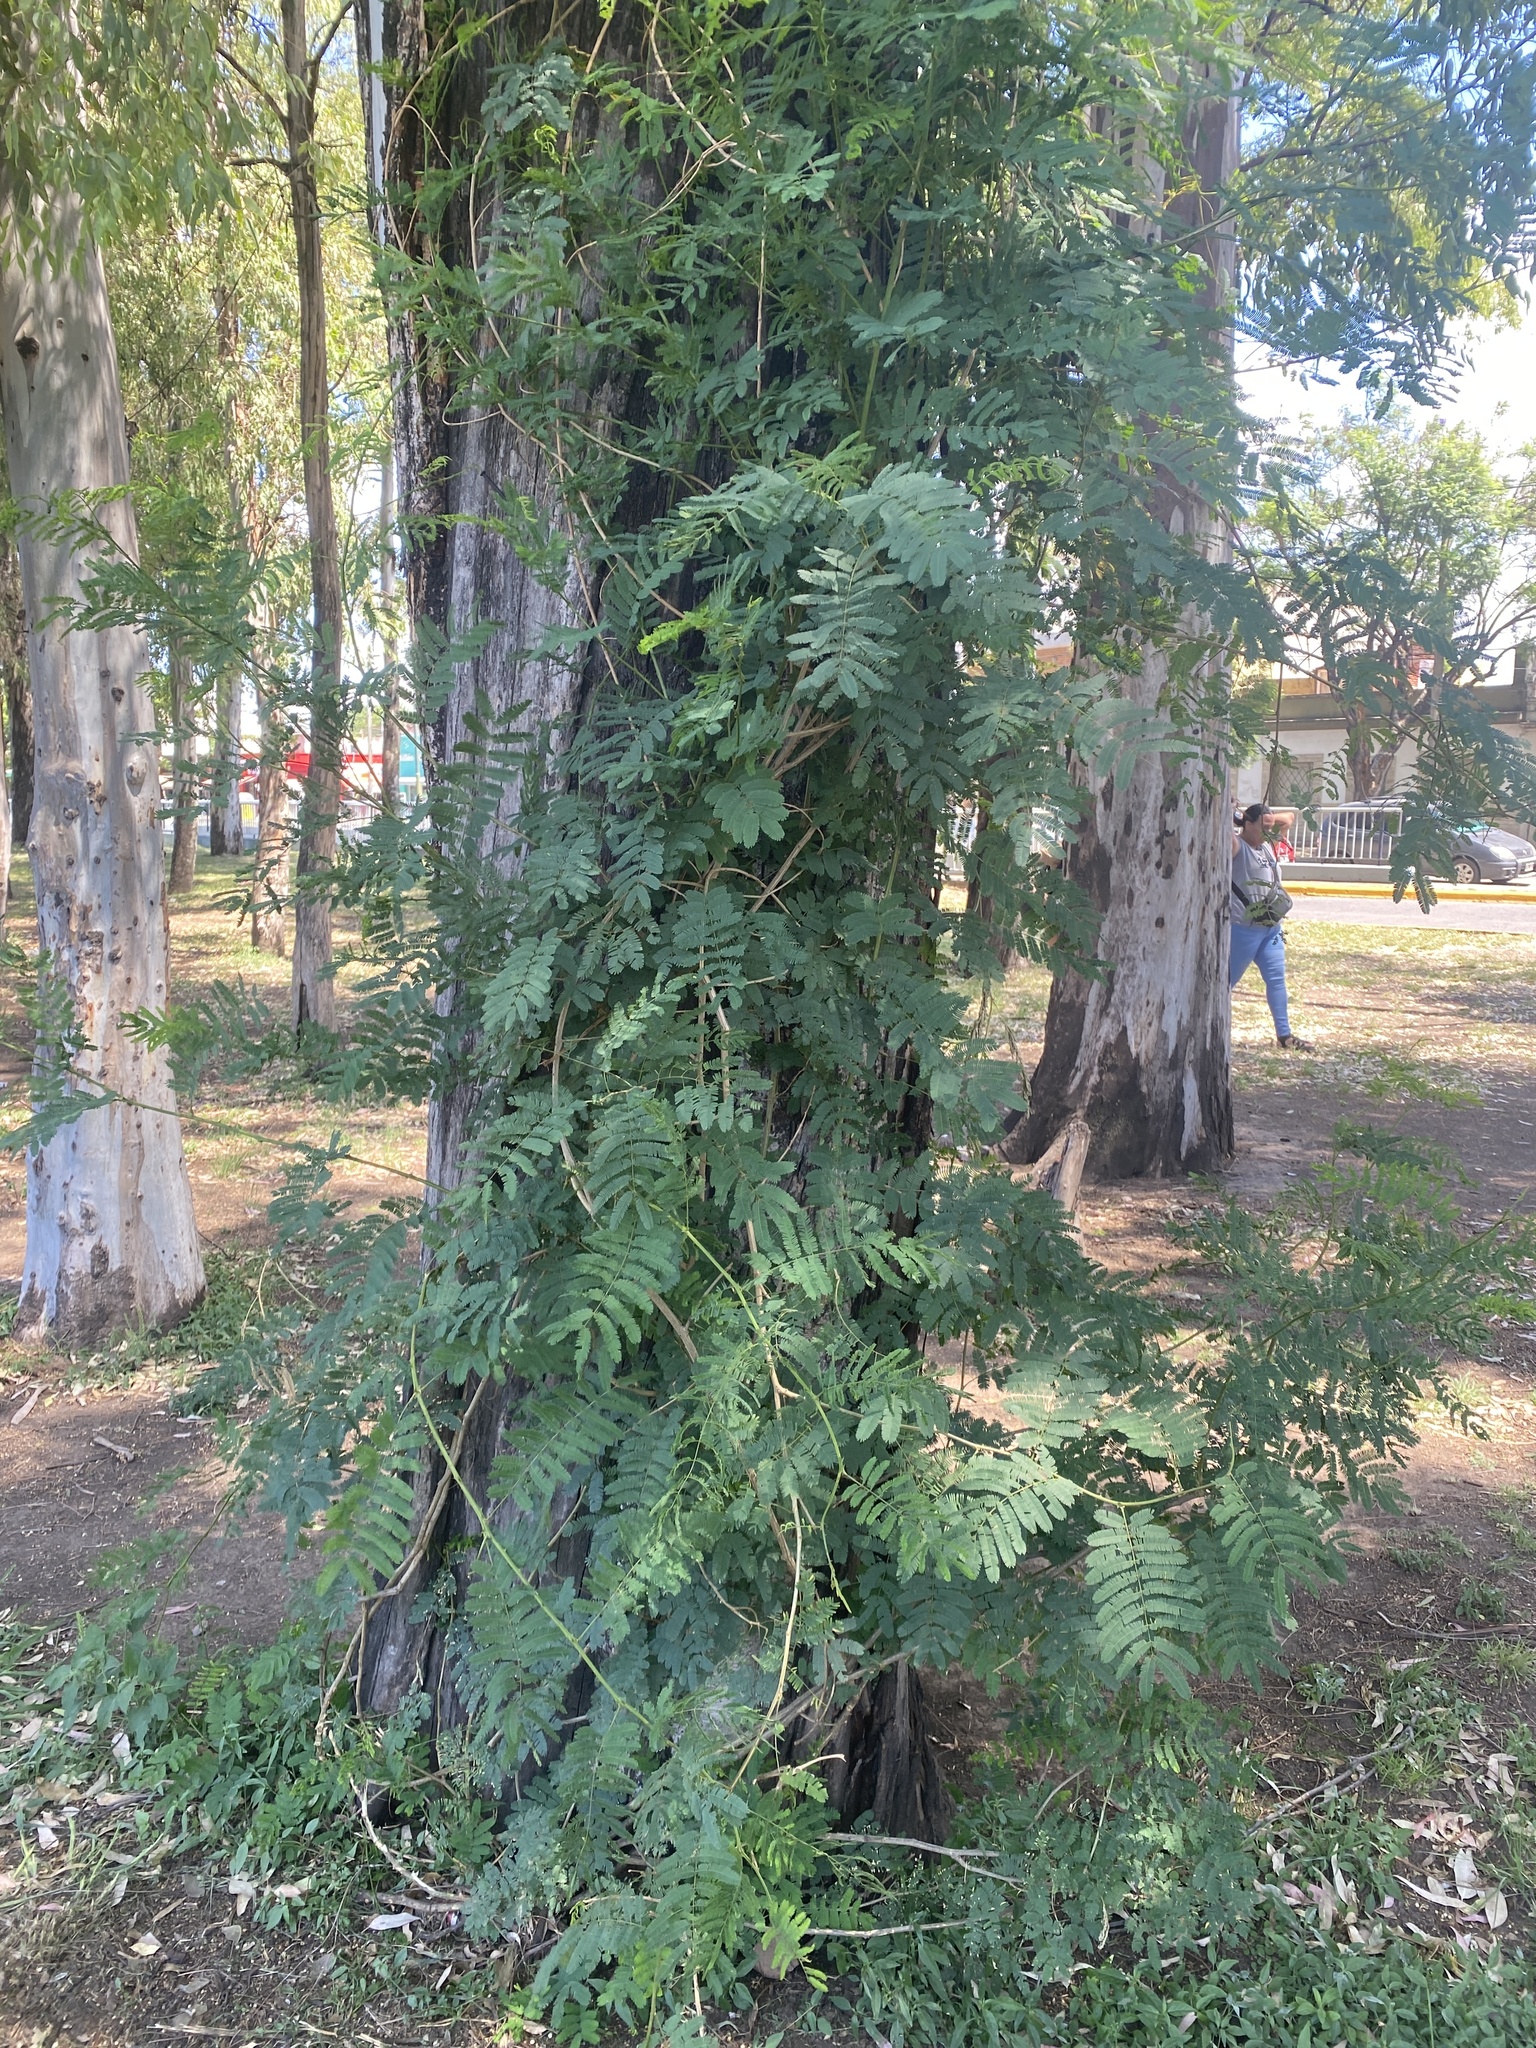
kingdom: Plantae
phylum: Tracheophyta
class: Magnoliopsida
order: Fabales
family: Fabaceae
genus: Senegalia
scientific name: Senegalia bonariensis
